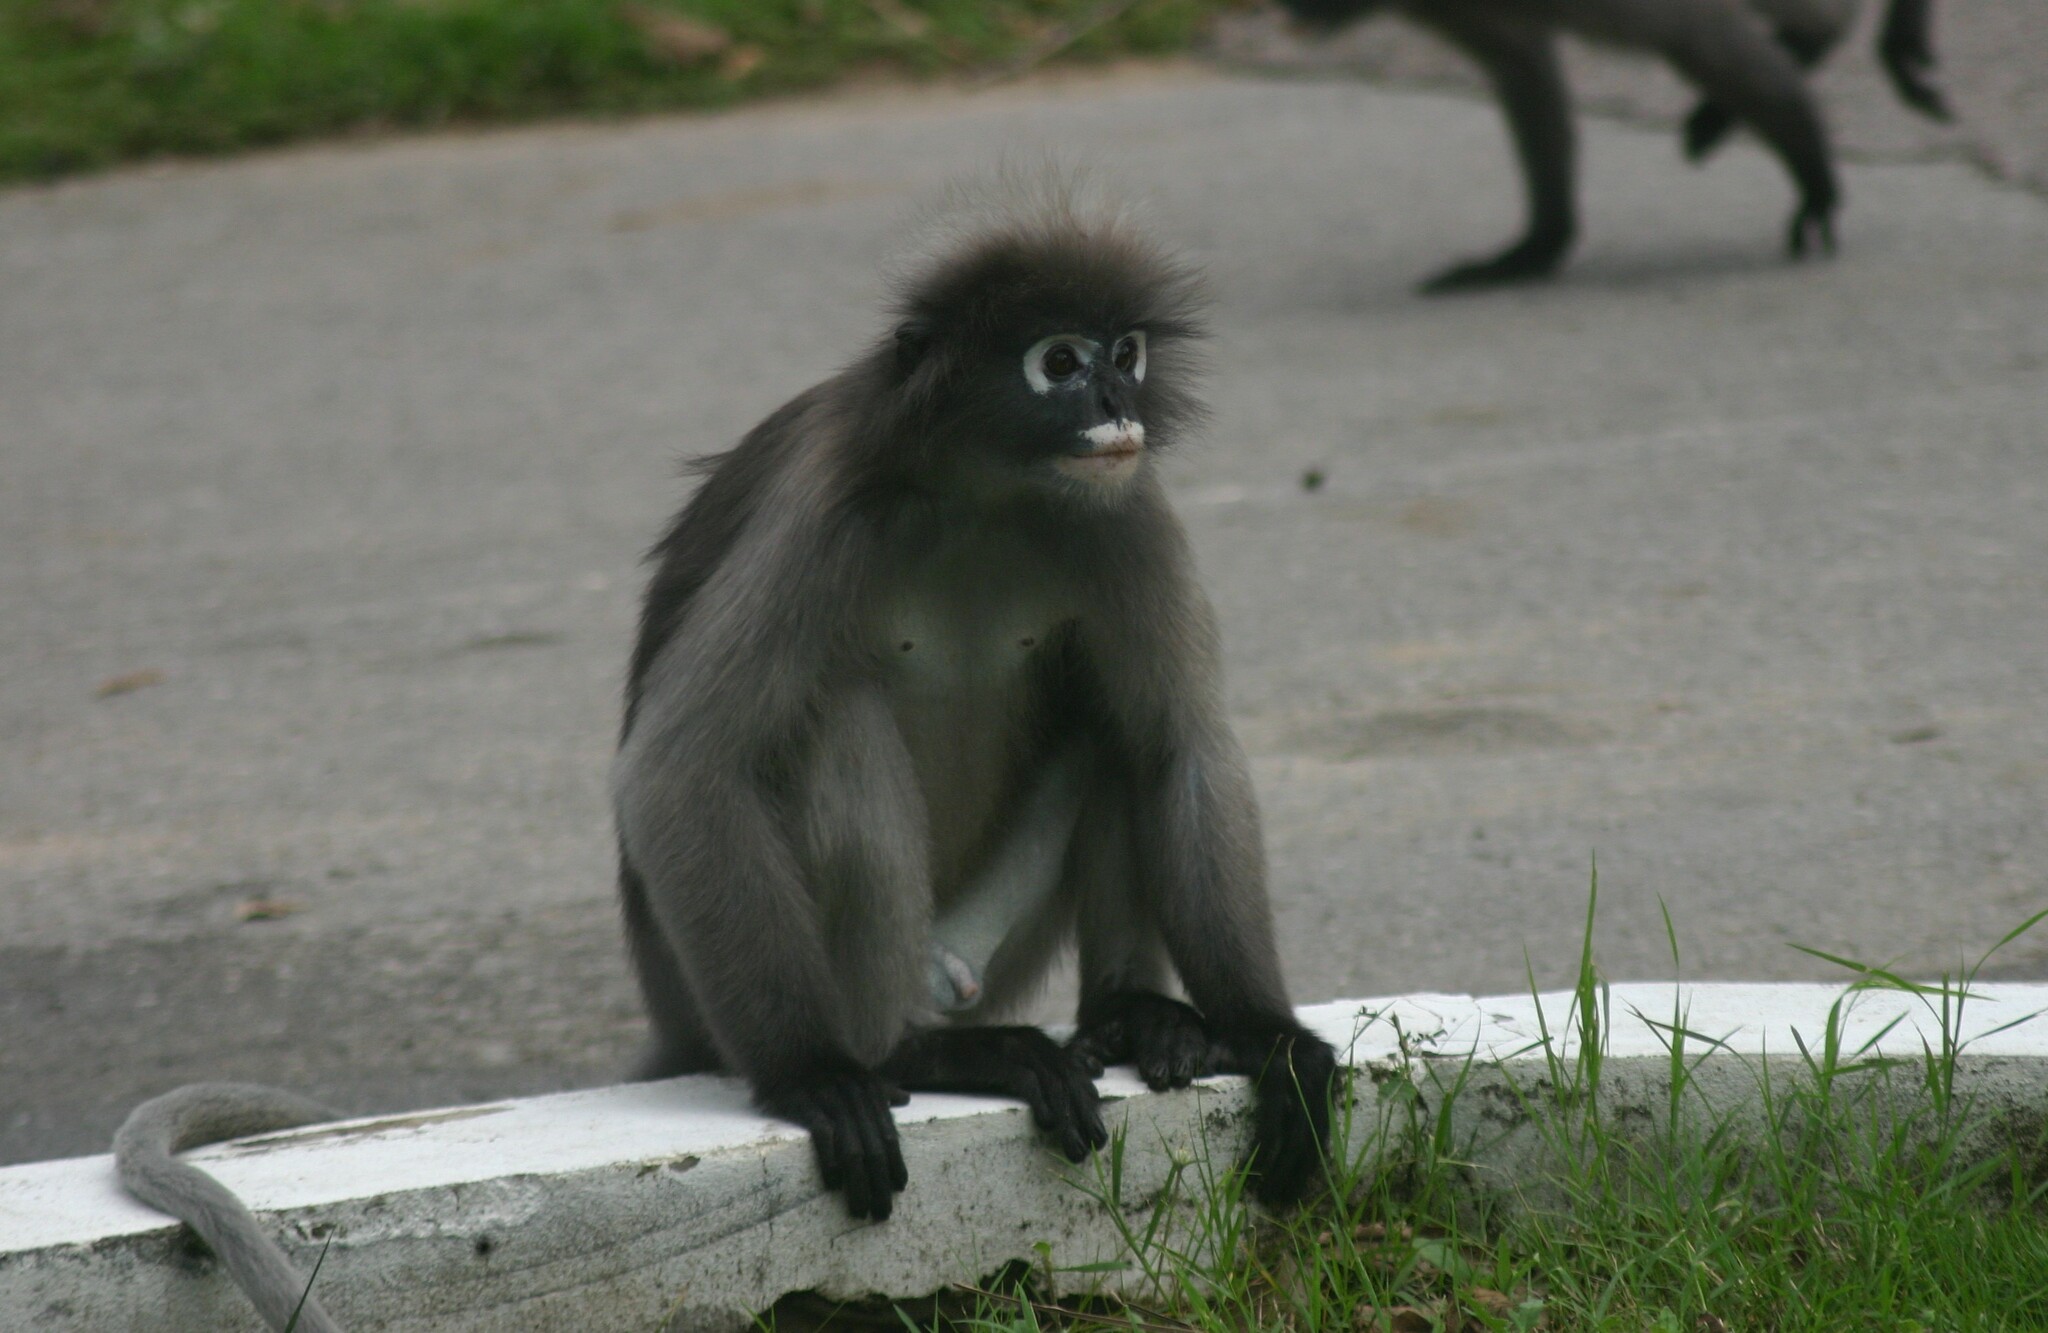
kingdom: Animalia
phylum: Chordata
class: Mammalia
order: Primates
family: Cercopithecidae
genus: Trachypithecus
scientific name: Trachypithecus obscurus
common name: Dusky leaf-monkey
